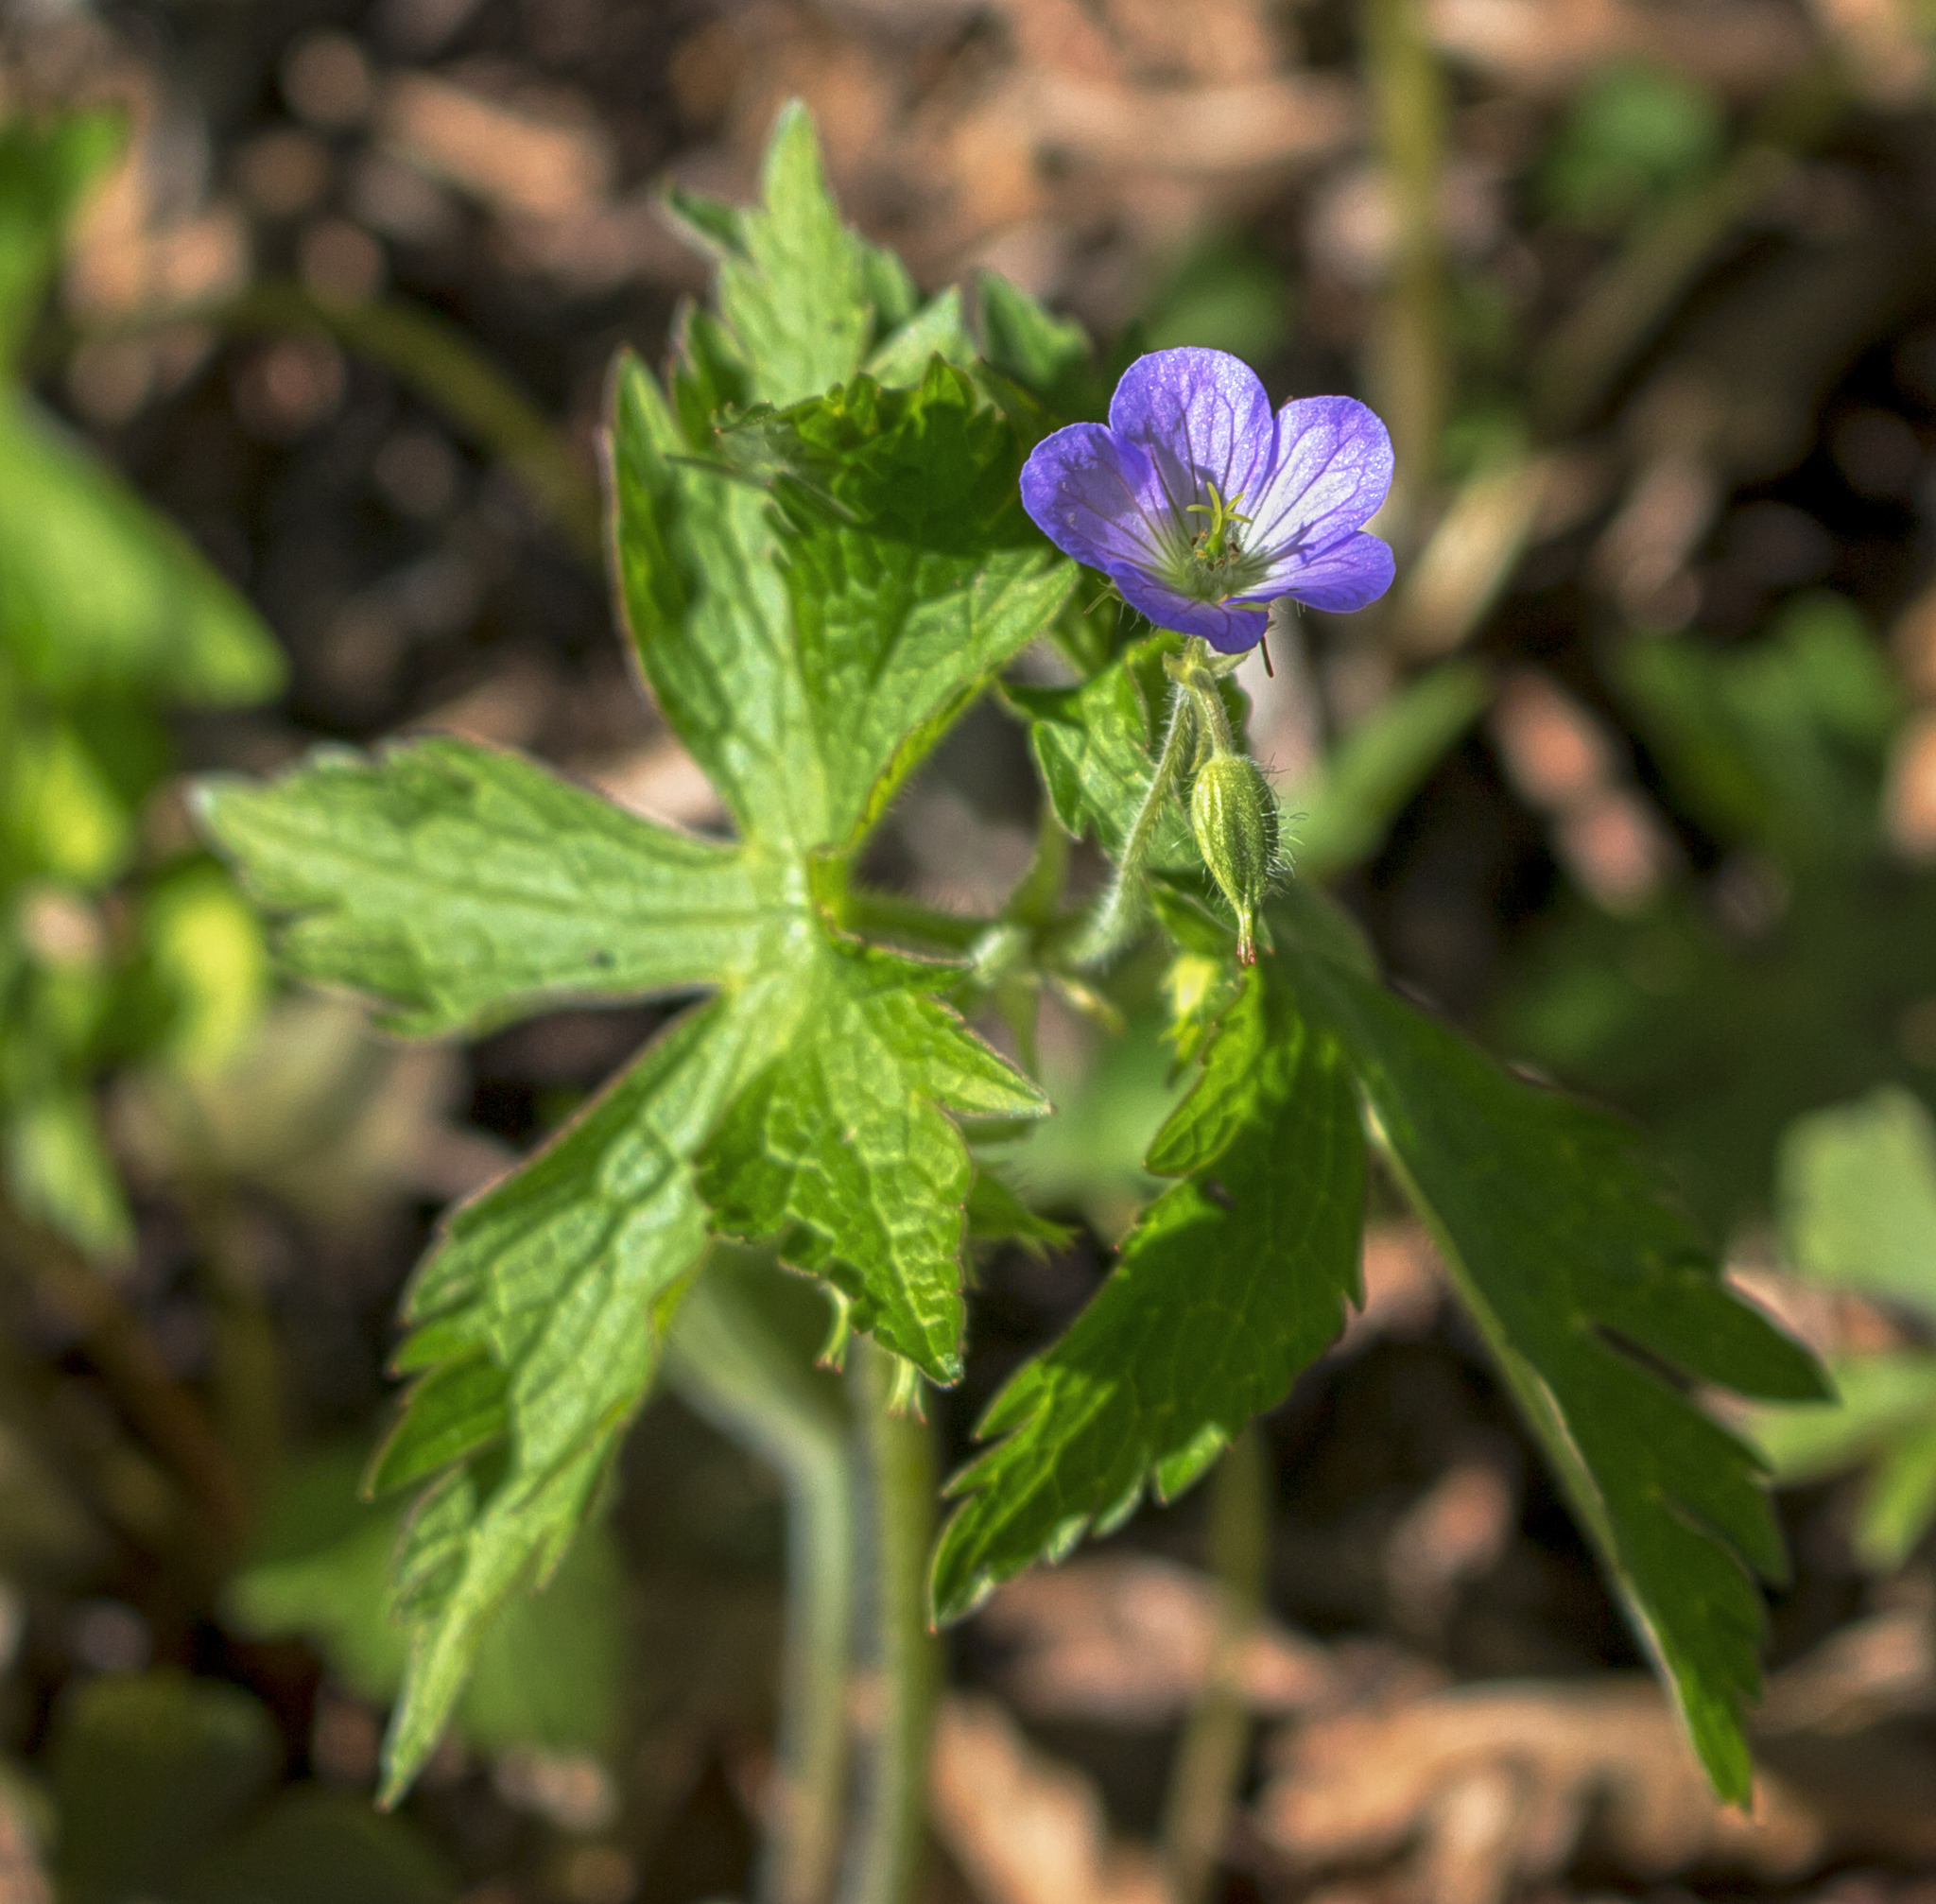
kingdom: Plantae
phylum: Tracheophyta
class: Magnoliopsida
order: Geraniales
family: Geraniaceae
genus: Geranium
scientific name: Geranium maculatum
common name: Spotted geranium
